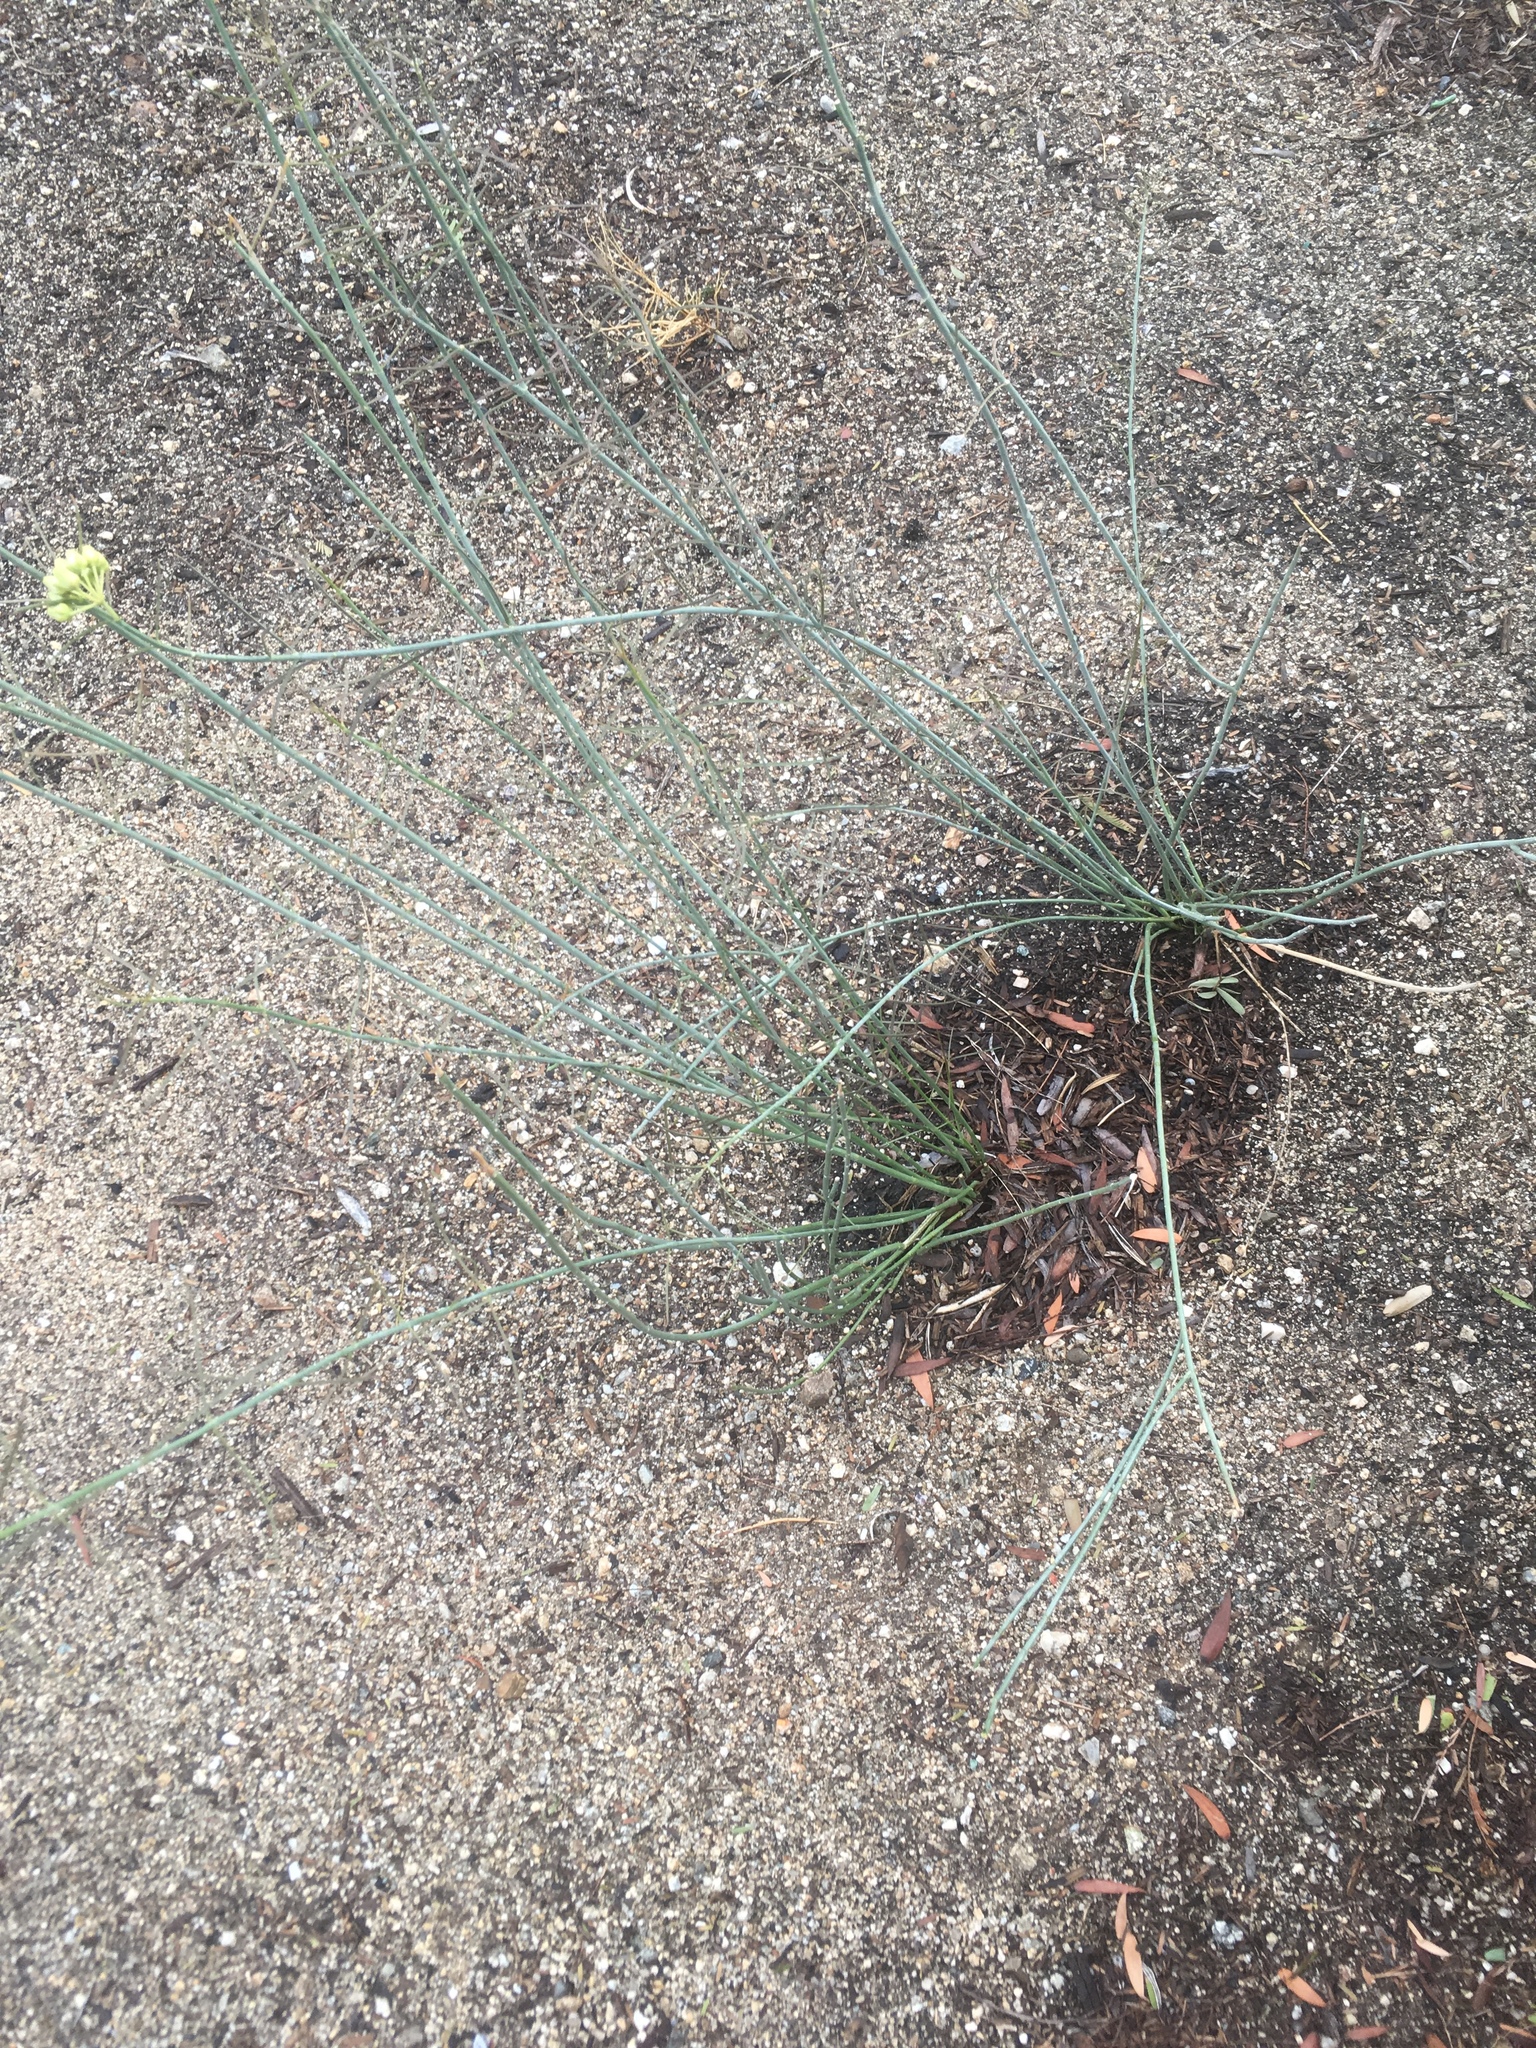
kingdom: Plantae
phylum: Tracheophyta
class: Magnoliopsida
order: Gentianales
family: Apocynaceae
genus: Asclepias
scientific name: Asclepias subulata
